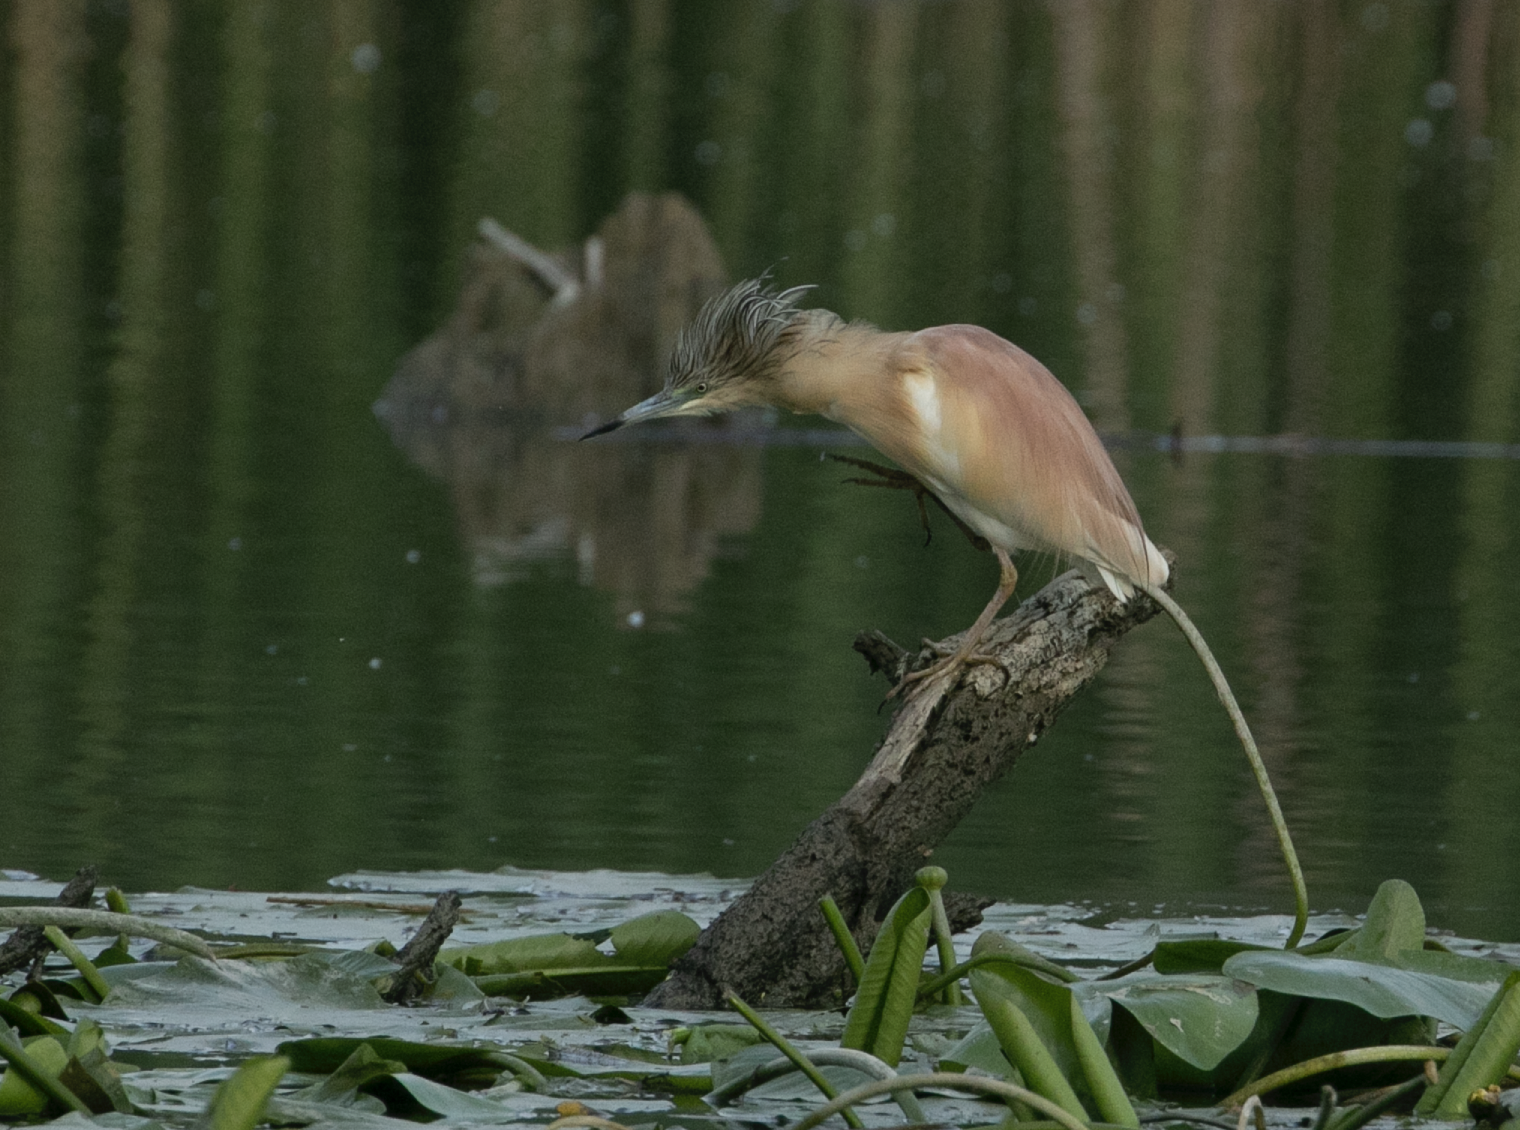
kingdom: Animalia
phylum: Chordata
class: Aves
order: Pelecaniformes
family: Ardeidae
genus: Ardeola
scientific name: Ardeola ralloides
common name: Squacco heron
